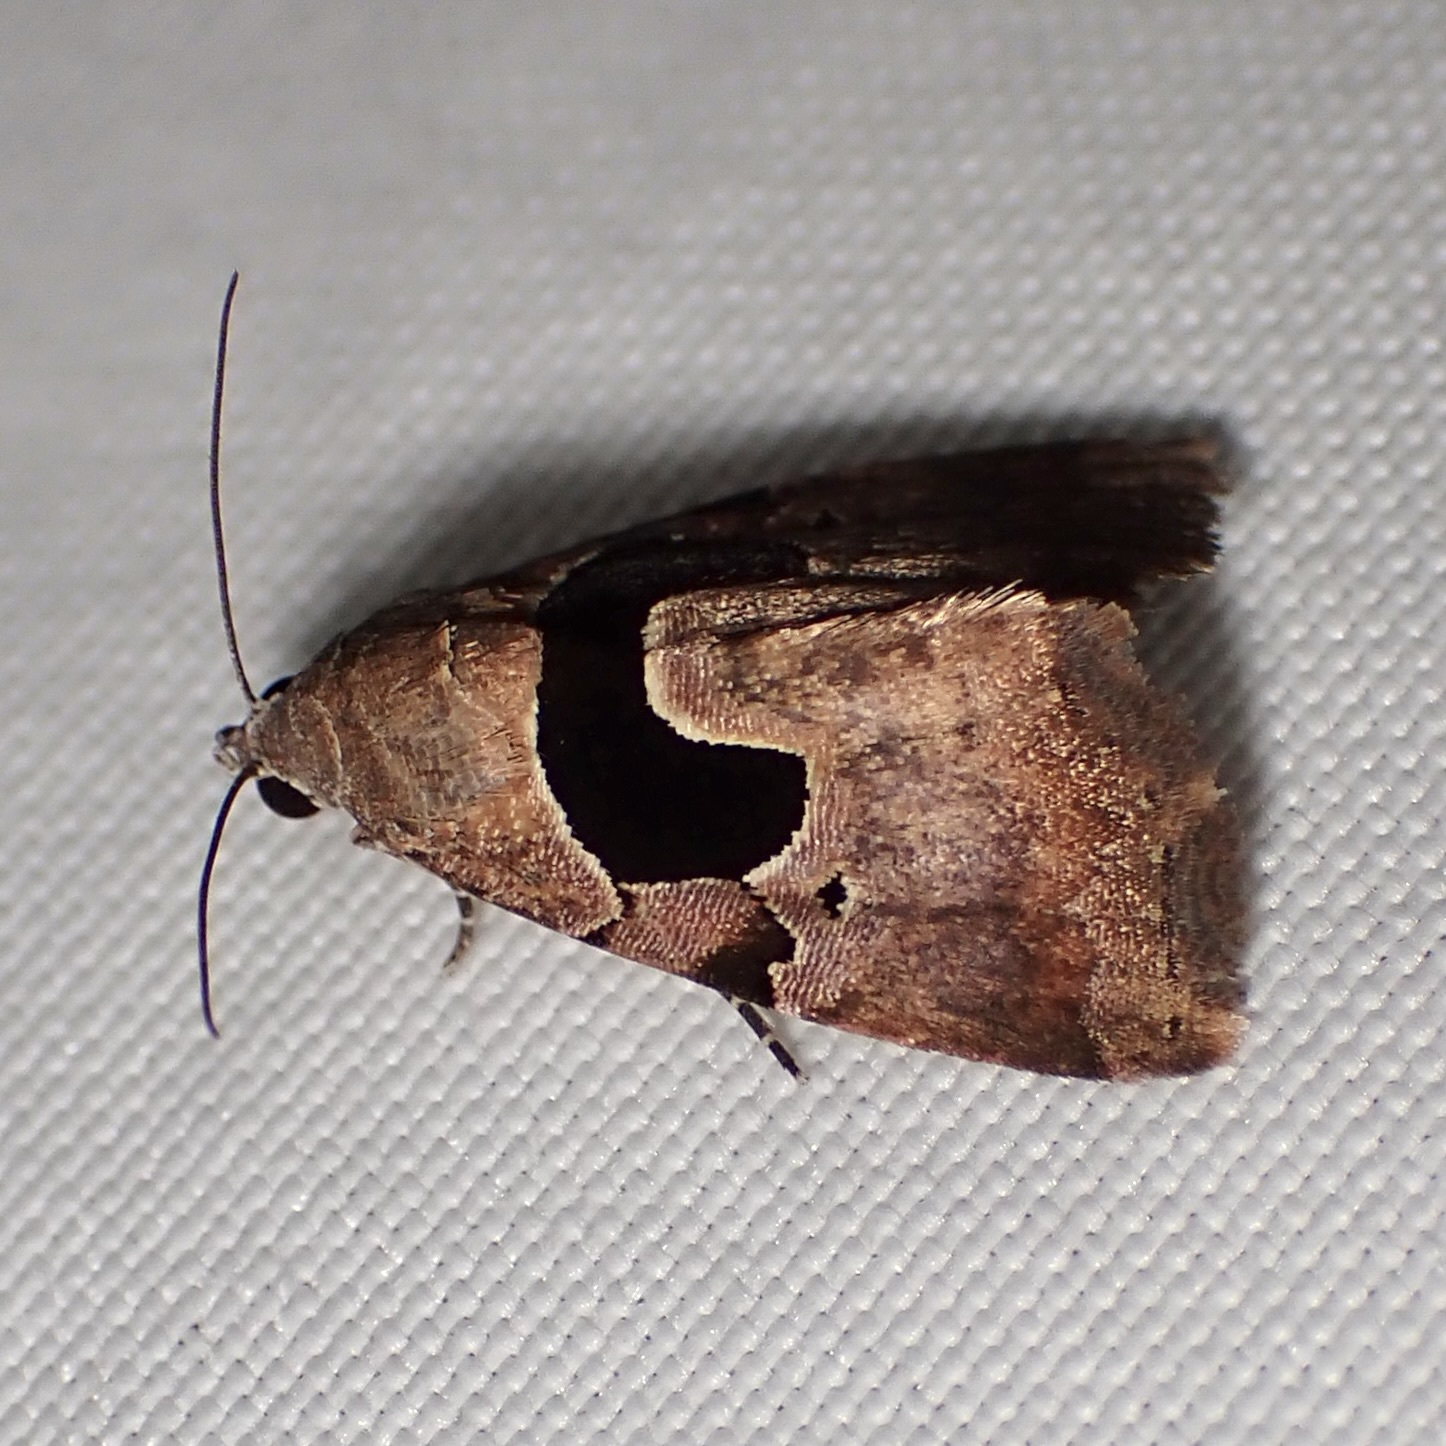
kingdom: Animalia
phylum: Arthropoda
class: Insecta
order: Lepidoptera
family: Noctuidae
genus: Tripudia
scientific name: Tripudia
